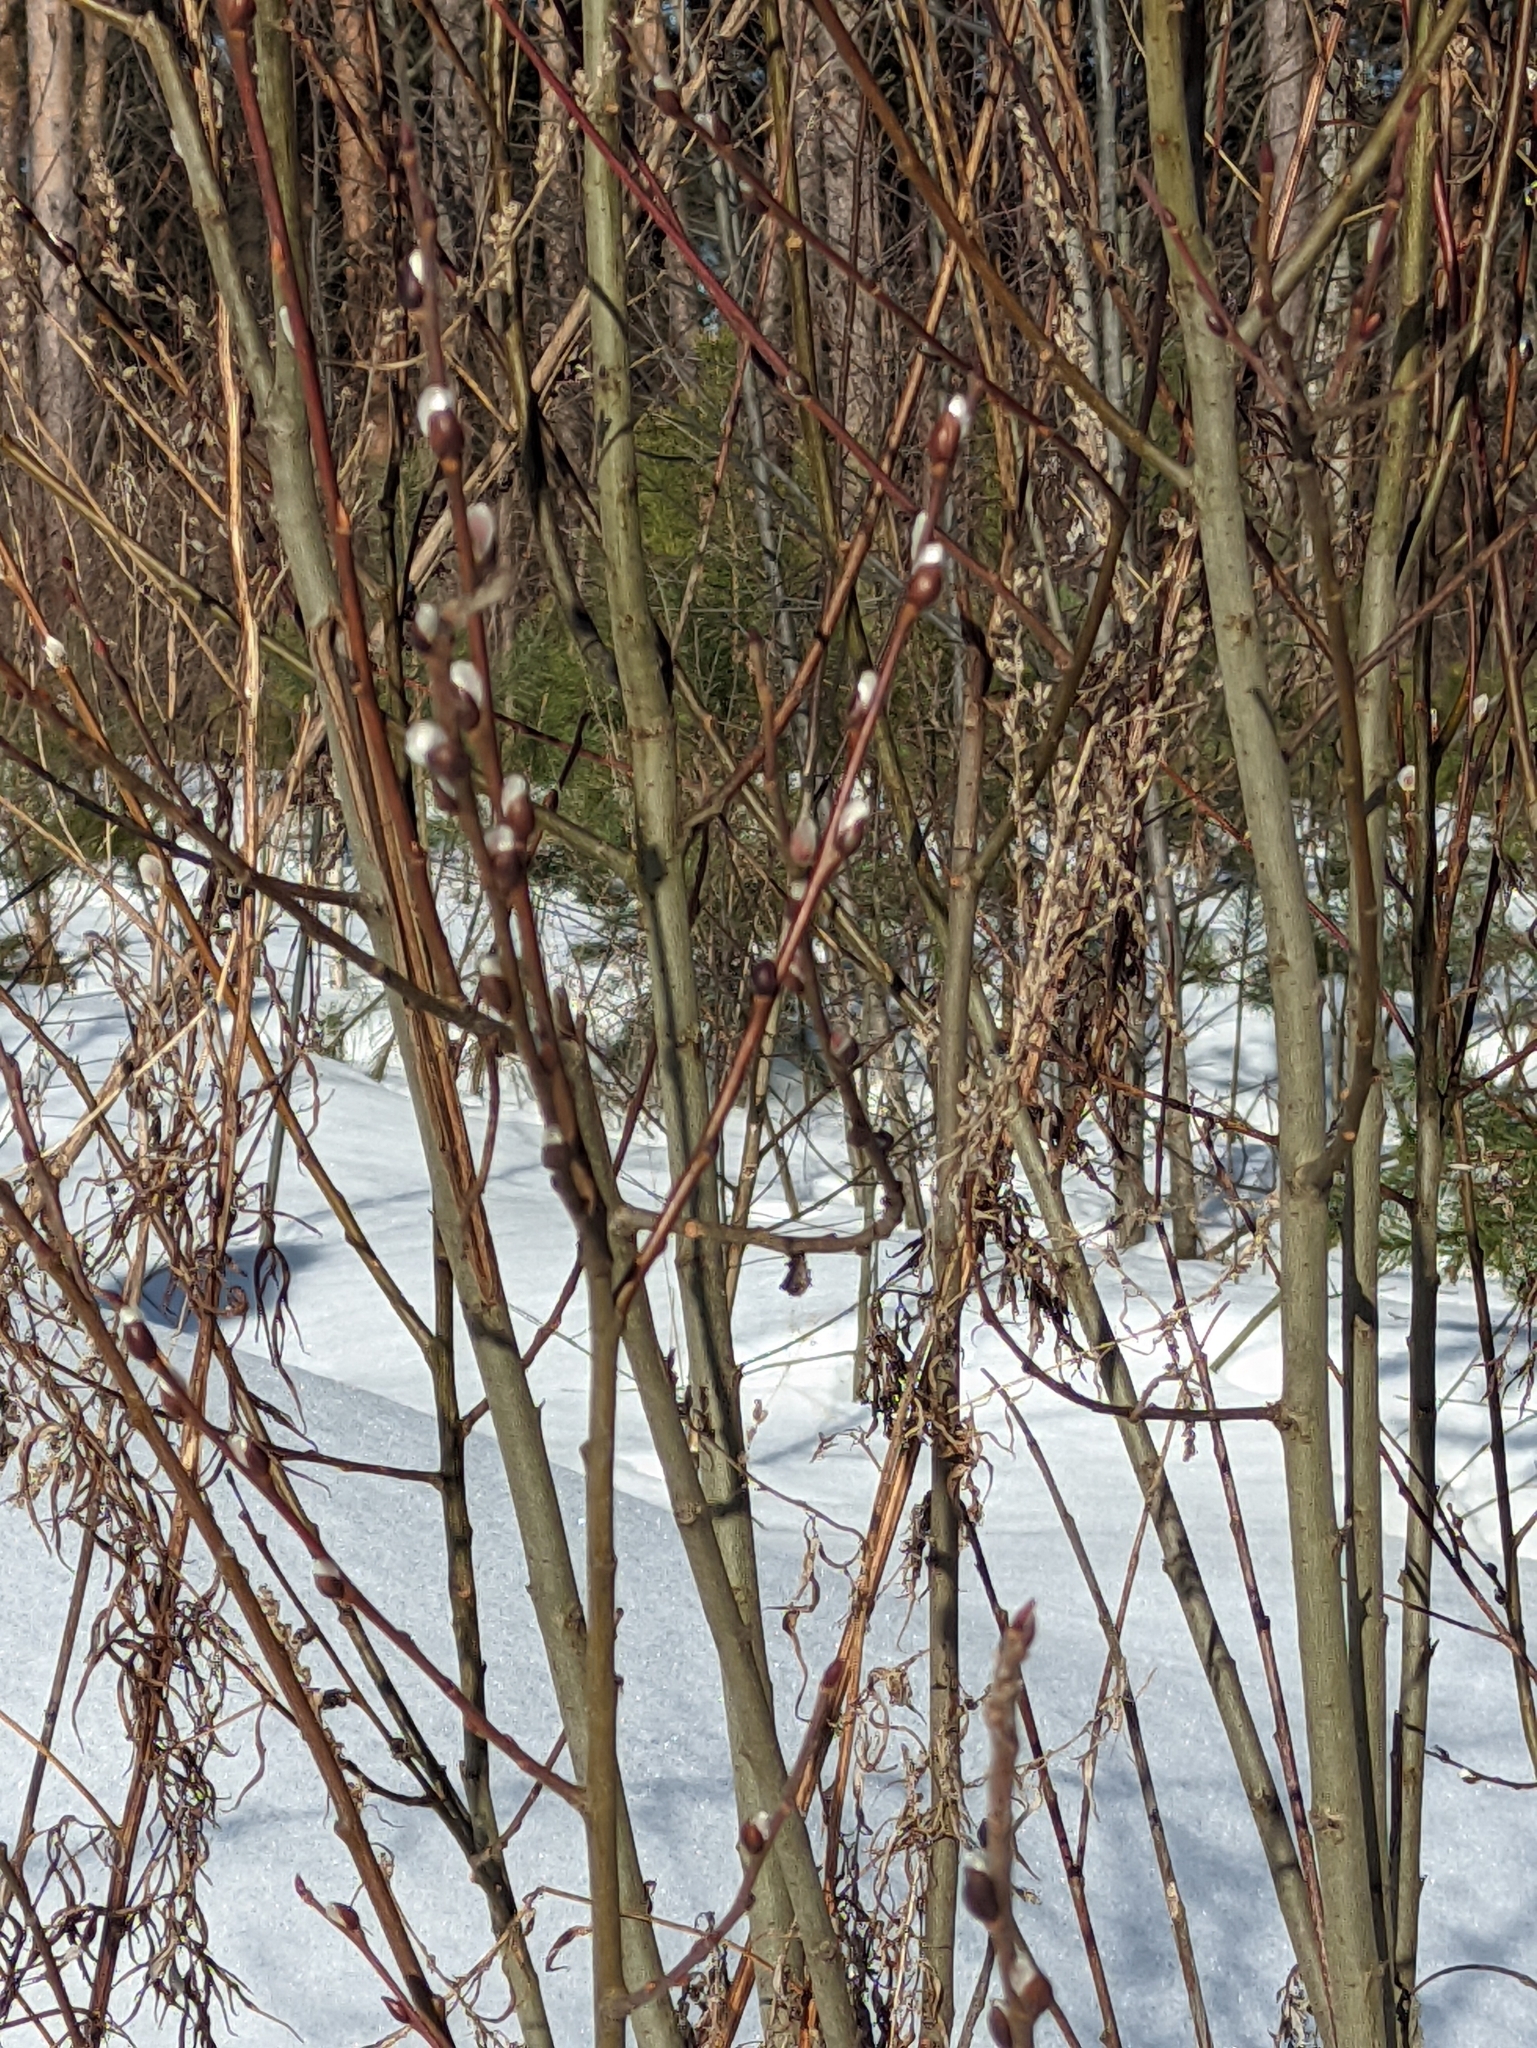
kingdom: Plantae
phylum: Tracheophyta
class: Magnoliopsida
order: Malpighiales
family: Salicaceae
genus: Salix
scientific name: Salix caprea
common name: Goat willow
